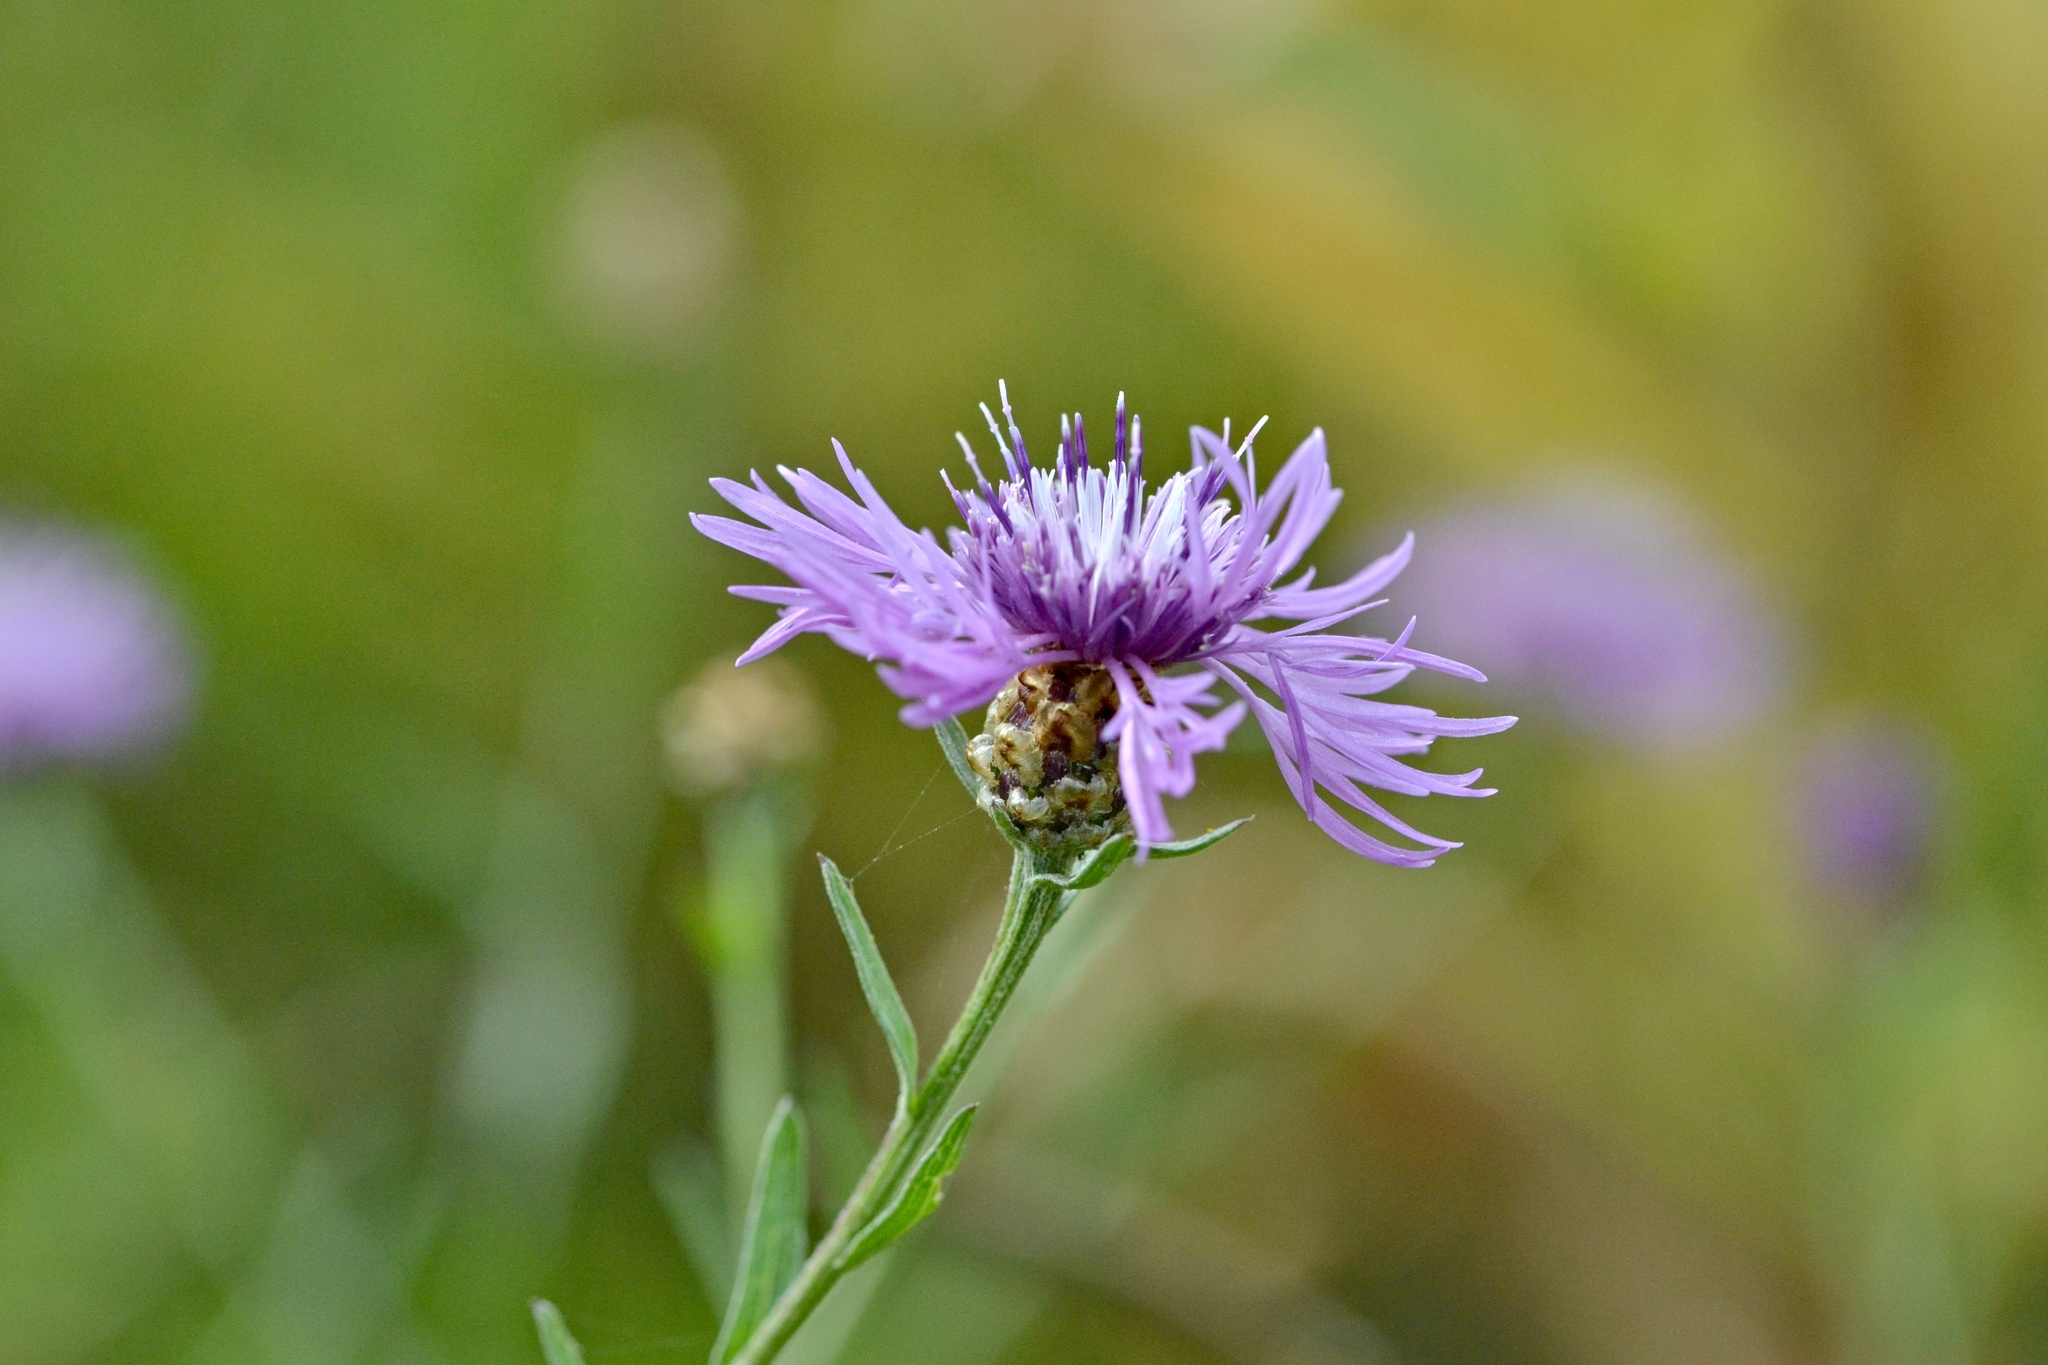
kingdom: Plantae
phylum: Tracheophyta
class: Magnoliopsida
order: Asterales
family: Asteraceae
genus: Centaurea
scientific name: Centaurea jacea
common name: Brown knapweed
